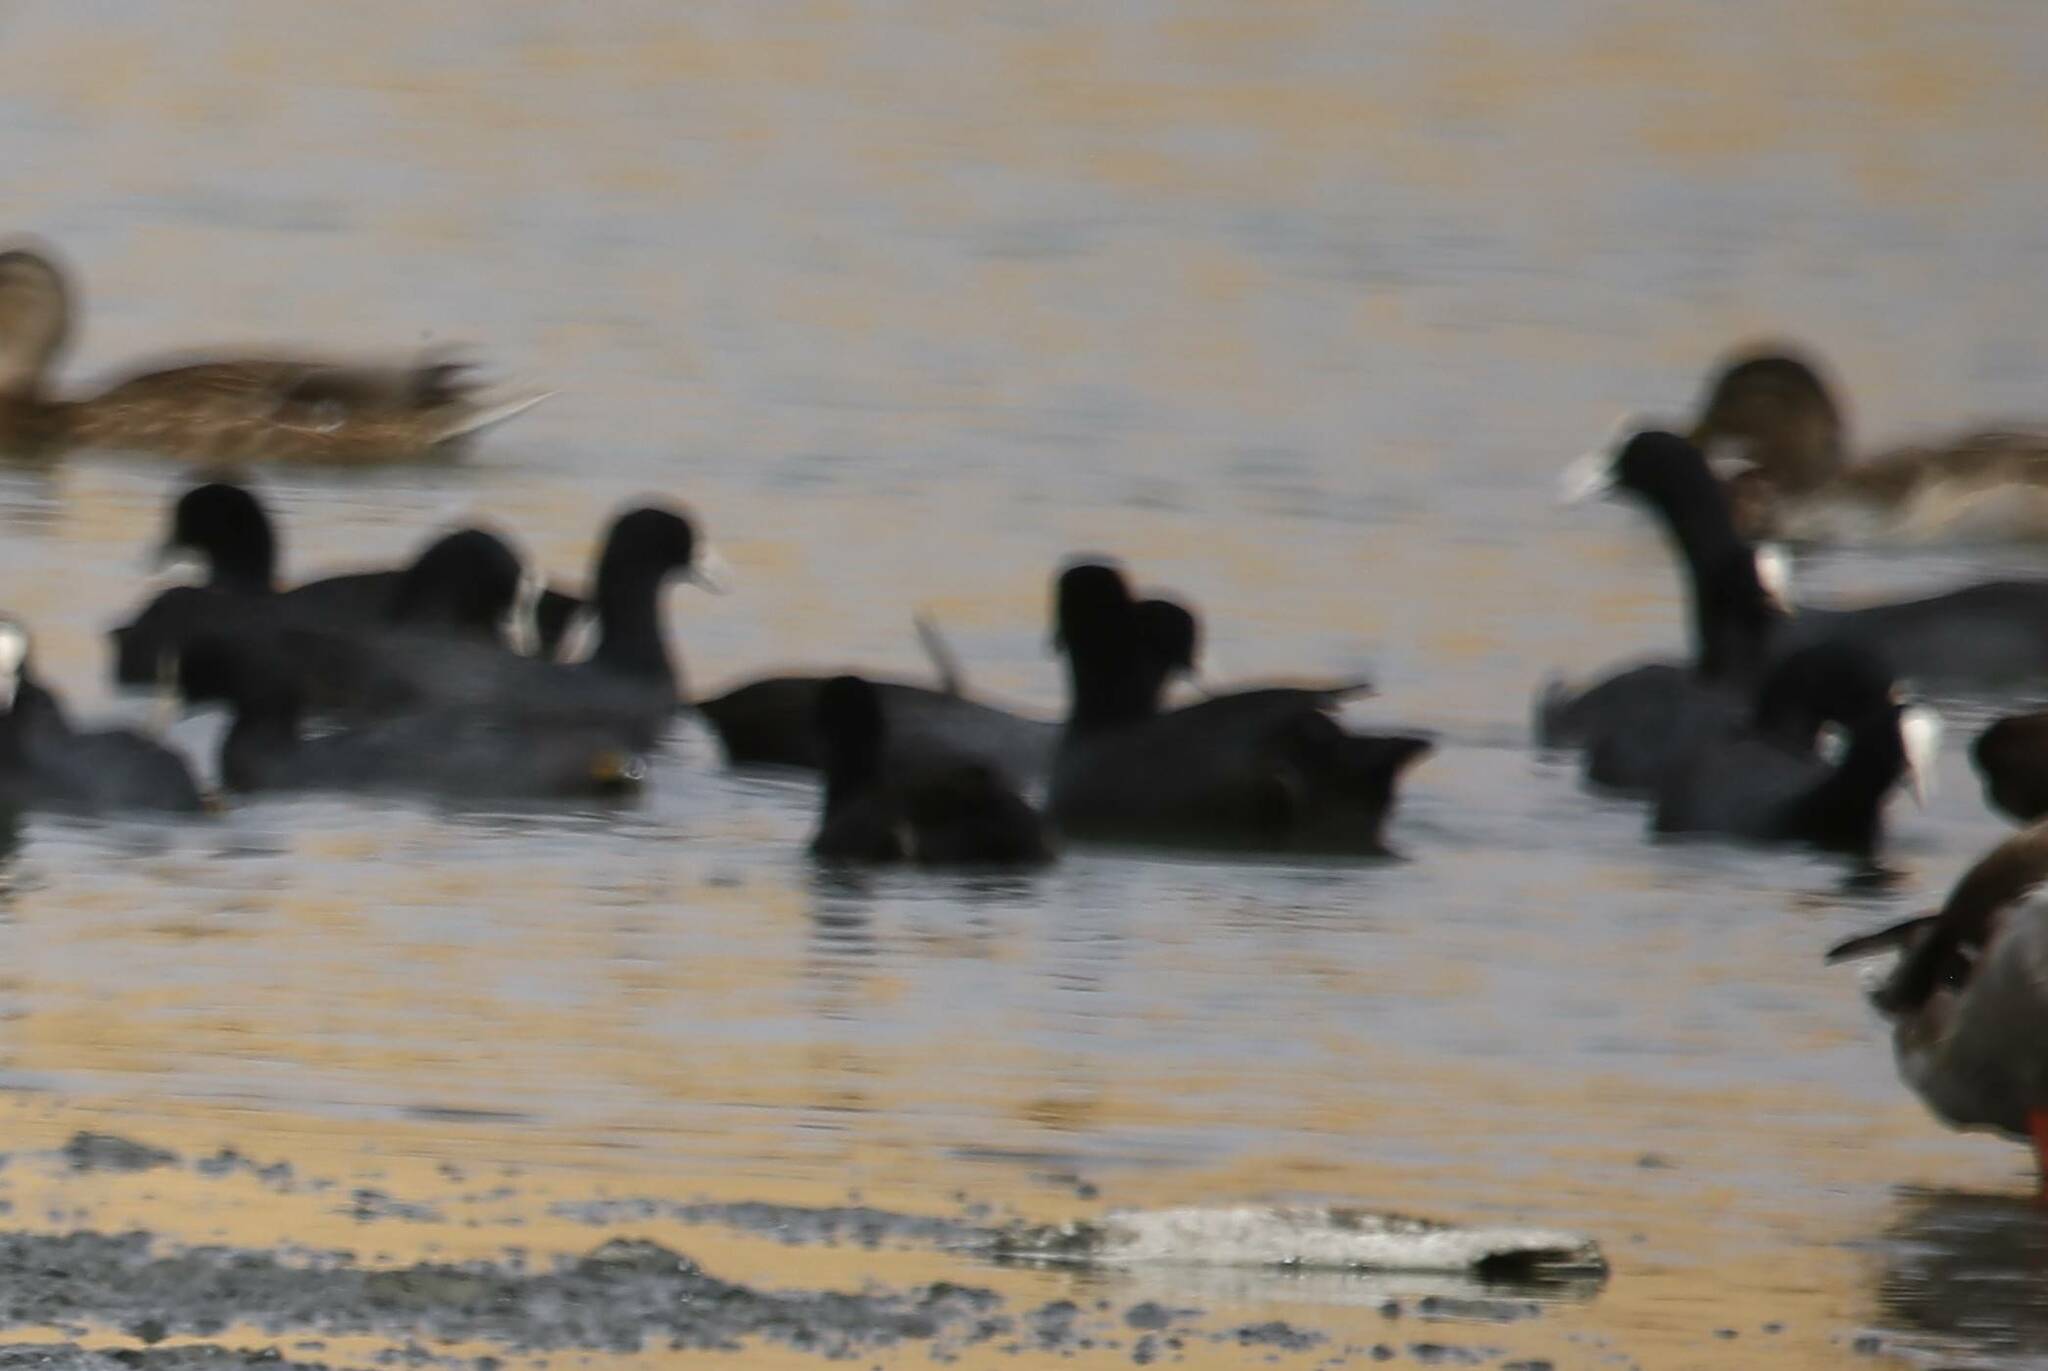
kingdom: Animalia
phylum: Chordata
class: Aves
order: Gruiformes
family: Rallidae
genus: Fulica
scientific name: Fulica atra
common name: Eurasian coot
